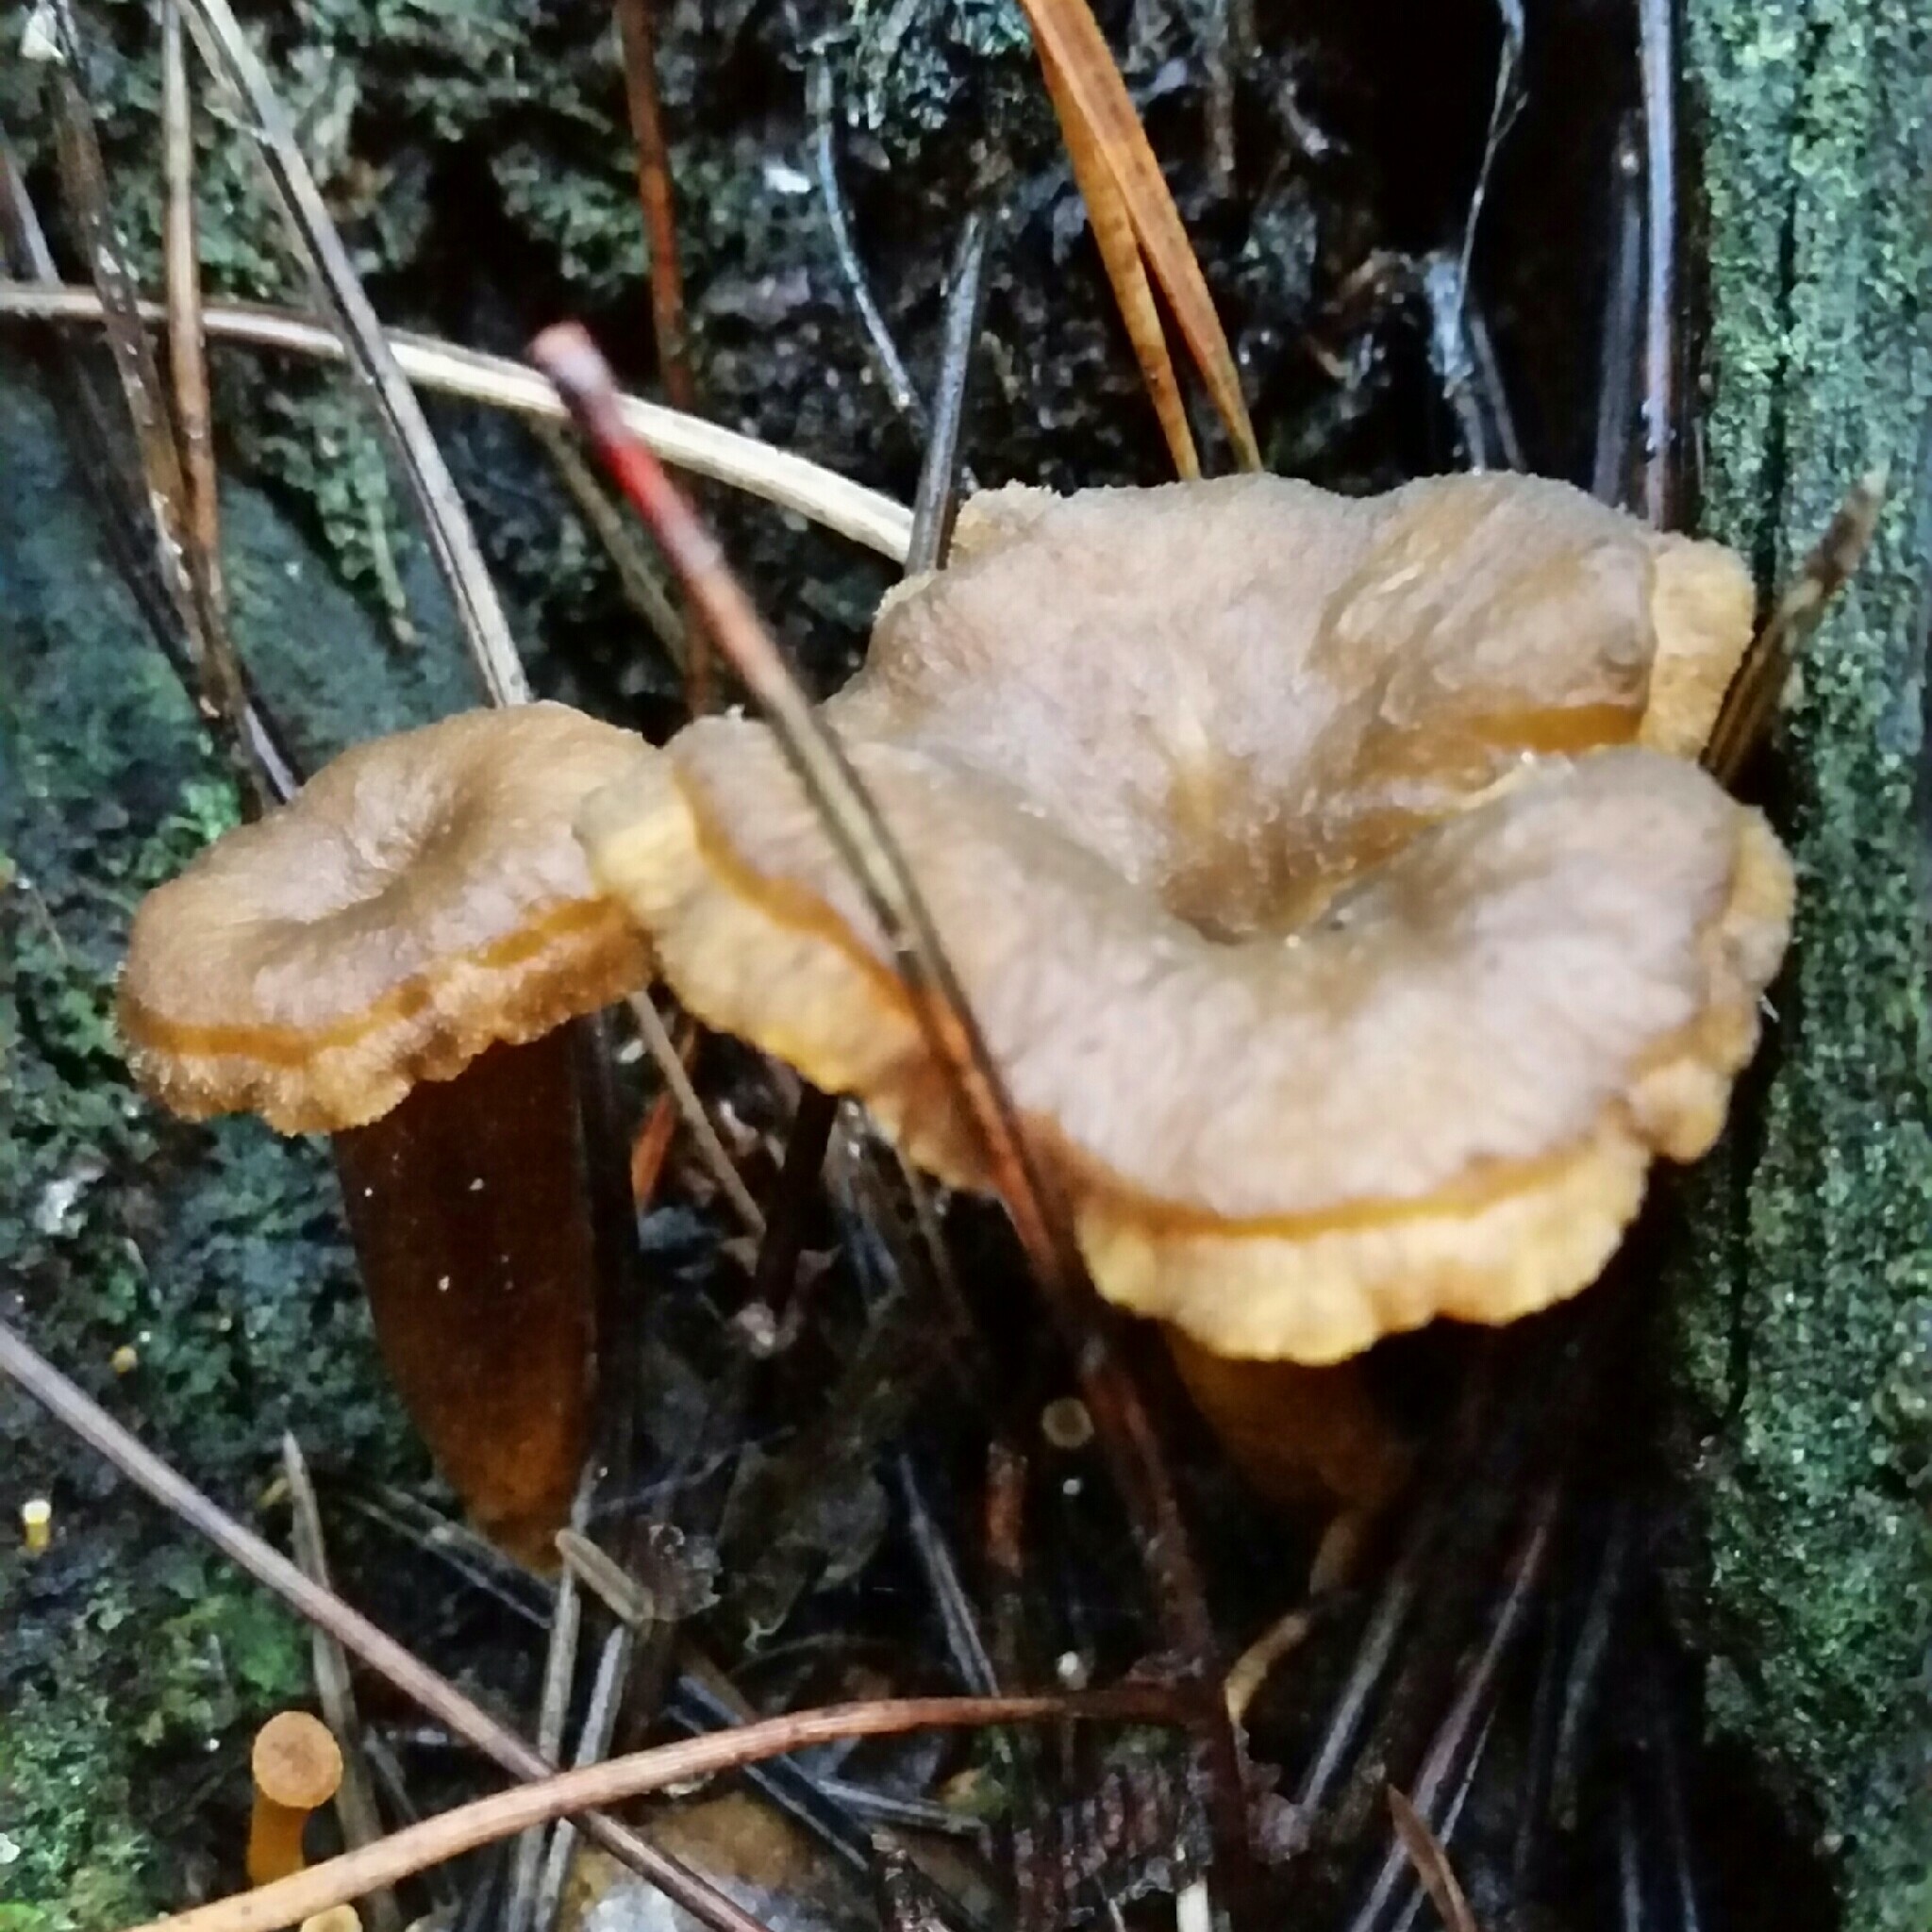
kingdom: Fungi
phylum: Basidiomycota
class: Agaricomycetes
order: Cantharellales
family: Hydnaceae
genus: Craterellus
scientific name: Craterellus tubaeformis
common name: Yellowfoot
